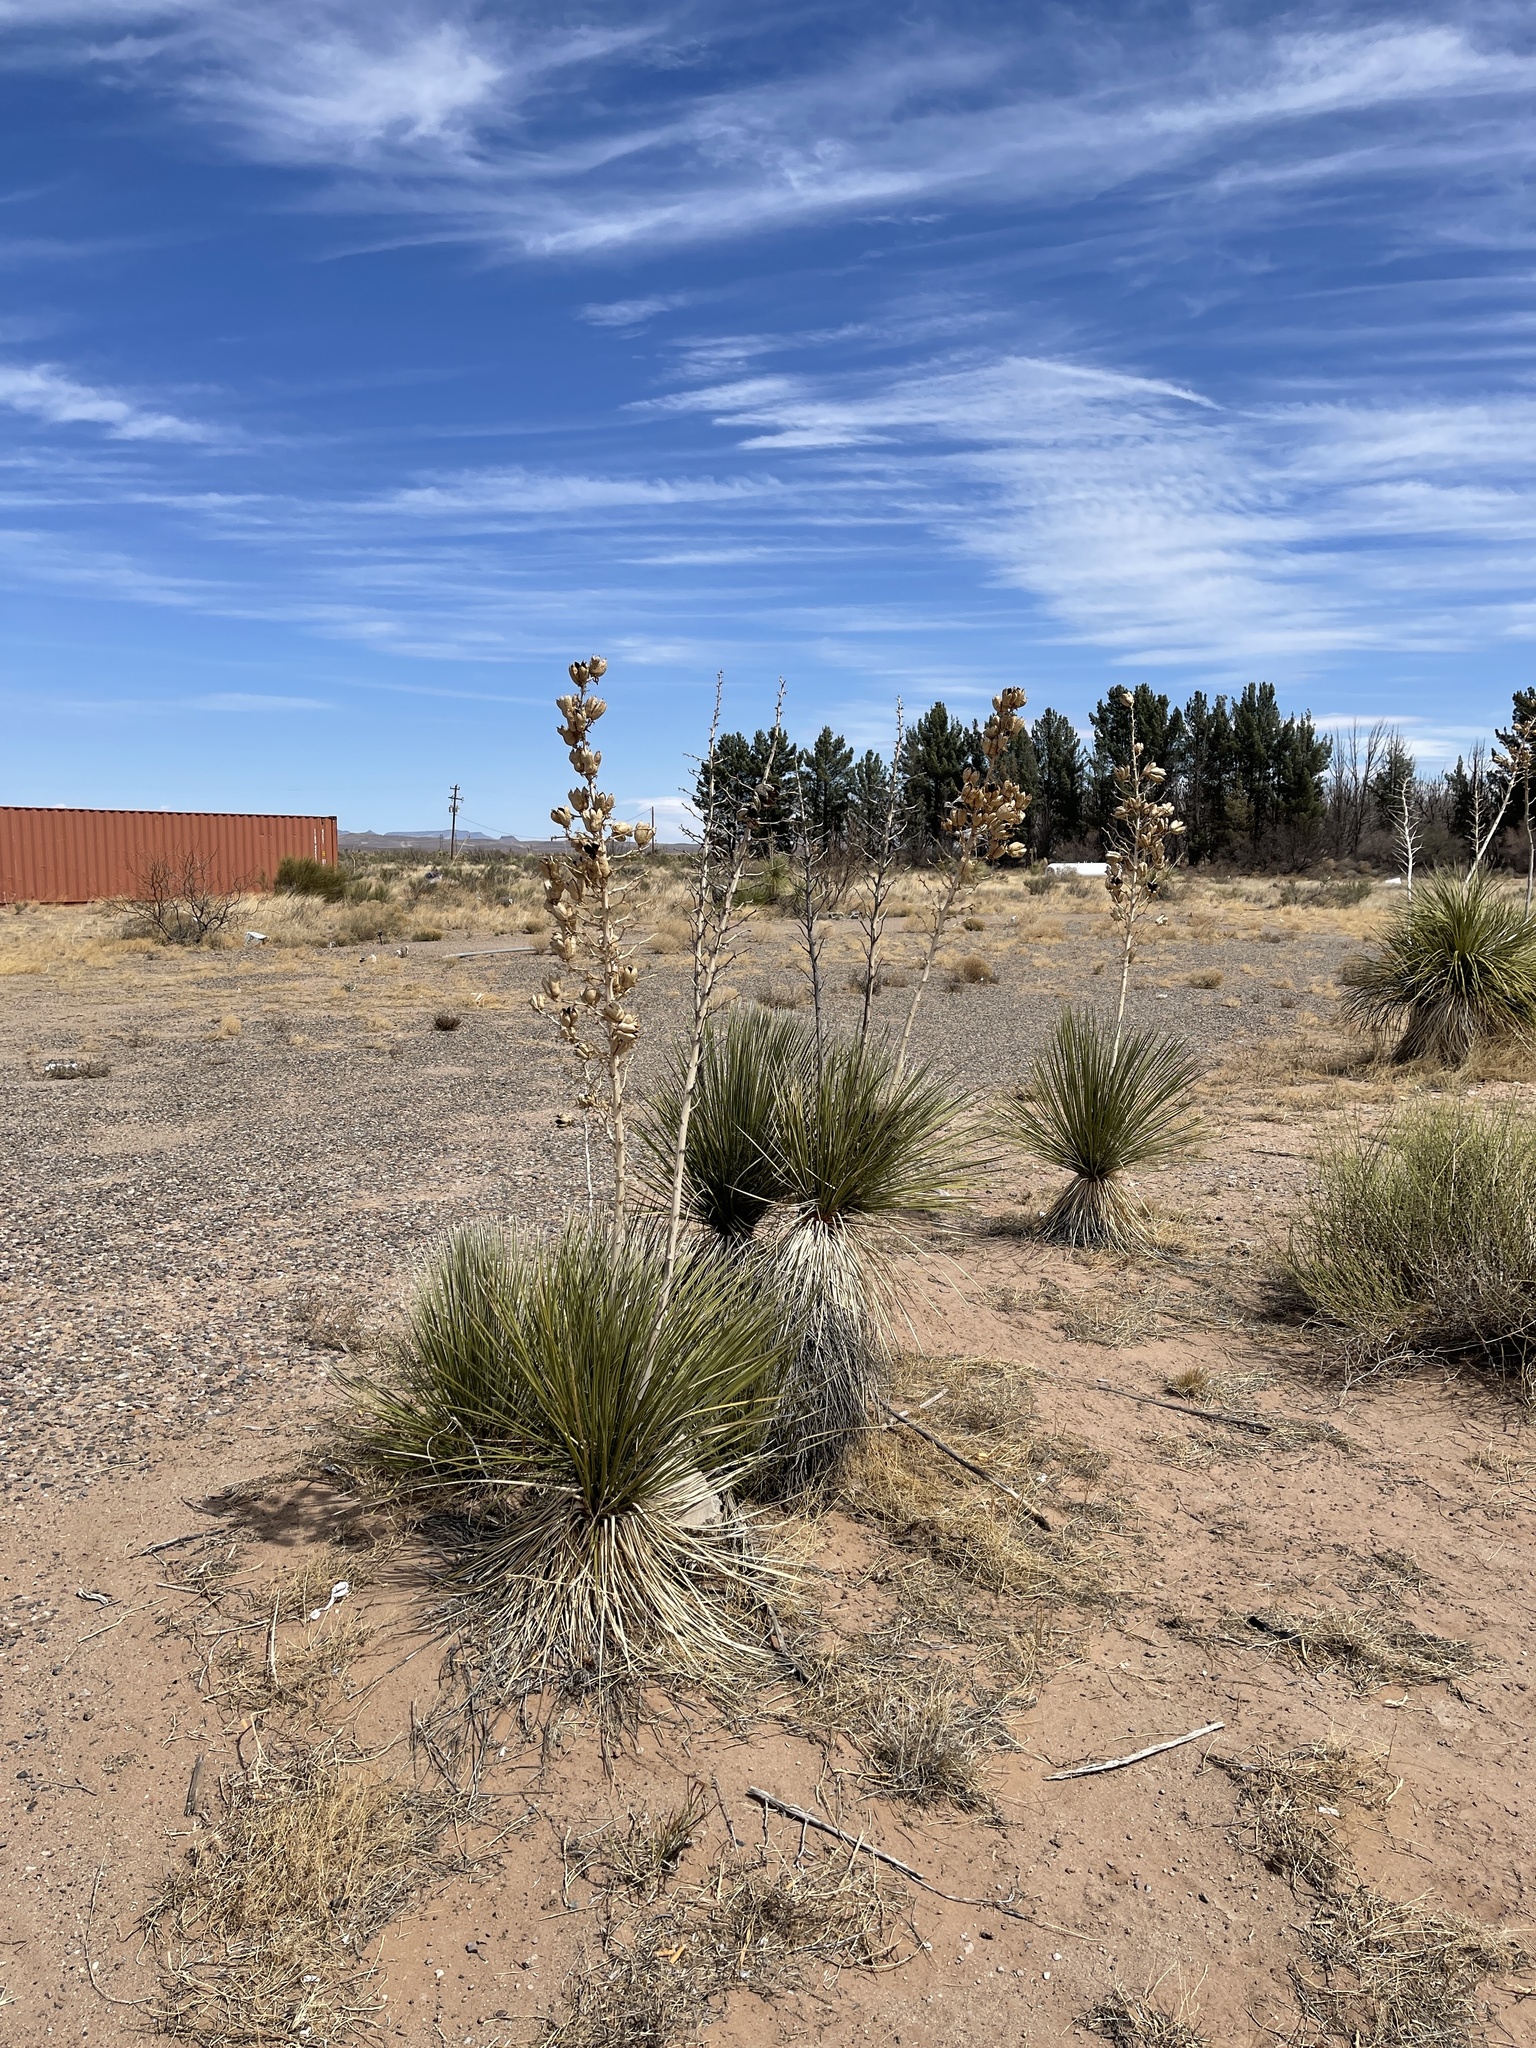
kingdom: Plantae
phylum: Tracheophyta
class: Liliopsida
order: Asparagales
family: Asparagaceae
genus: Yucca
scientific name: Yucca elata
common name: Palmella
